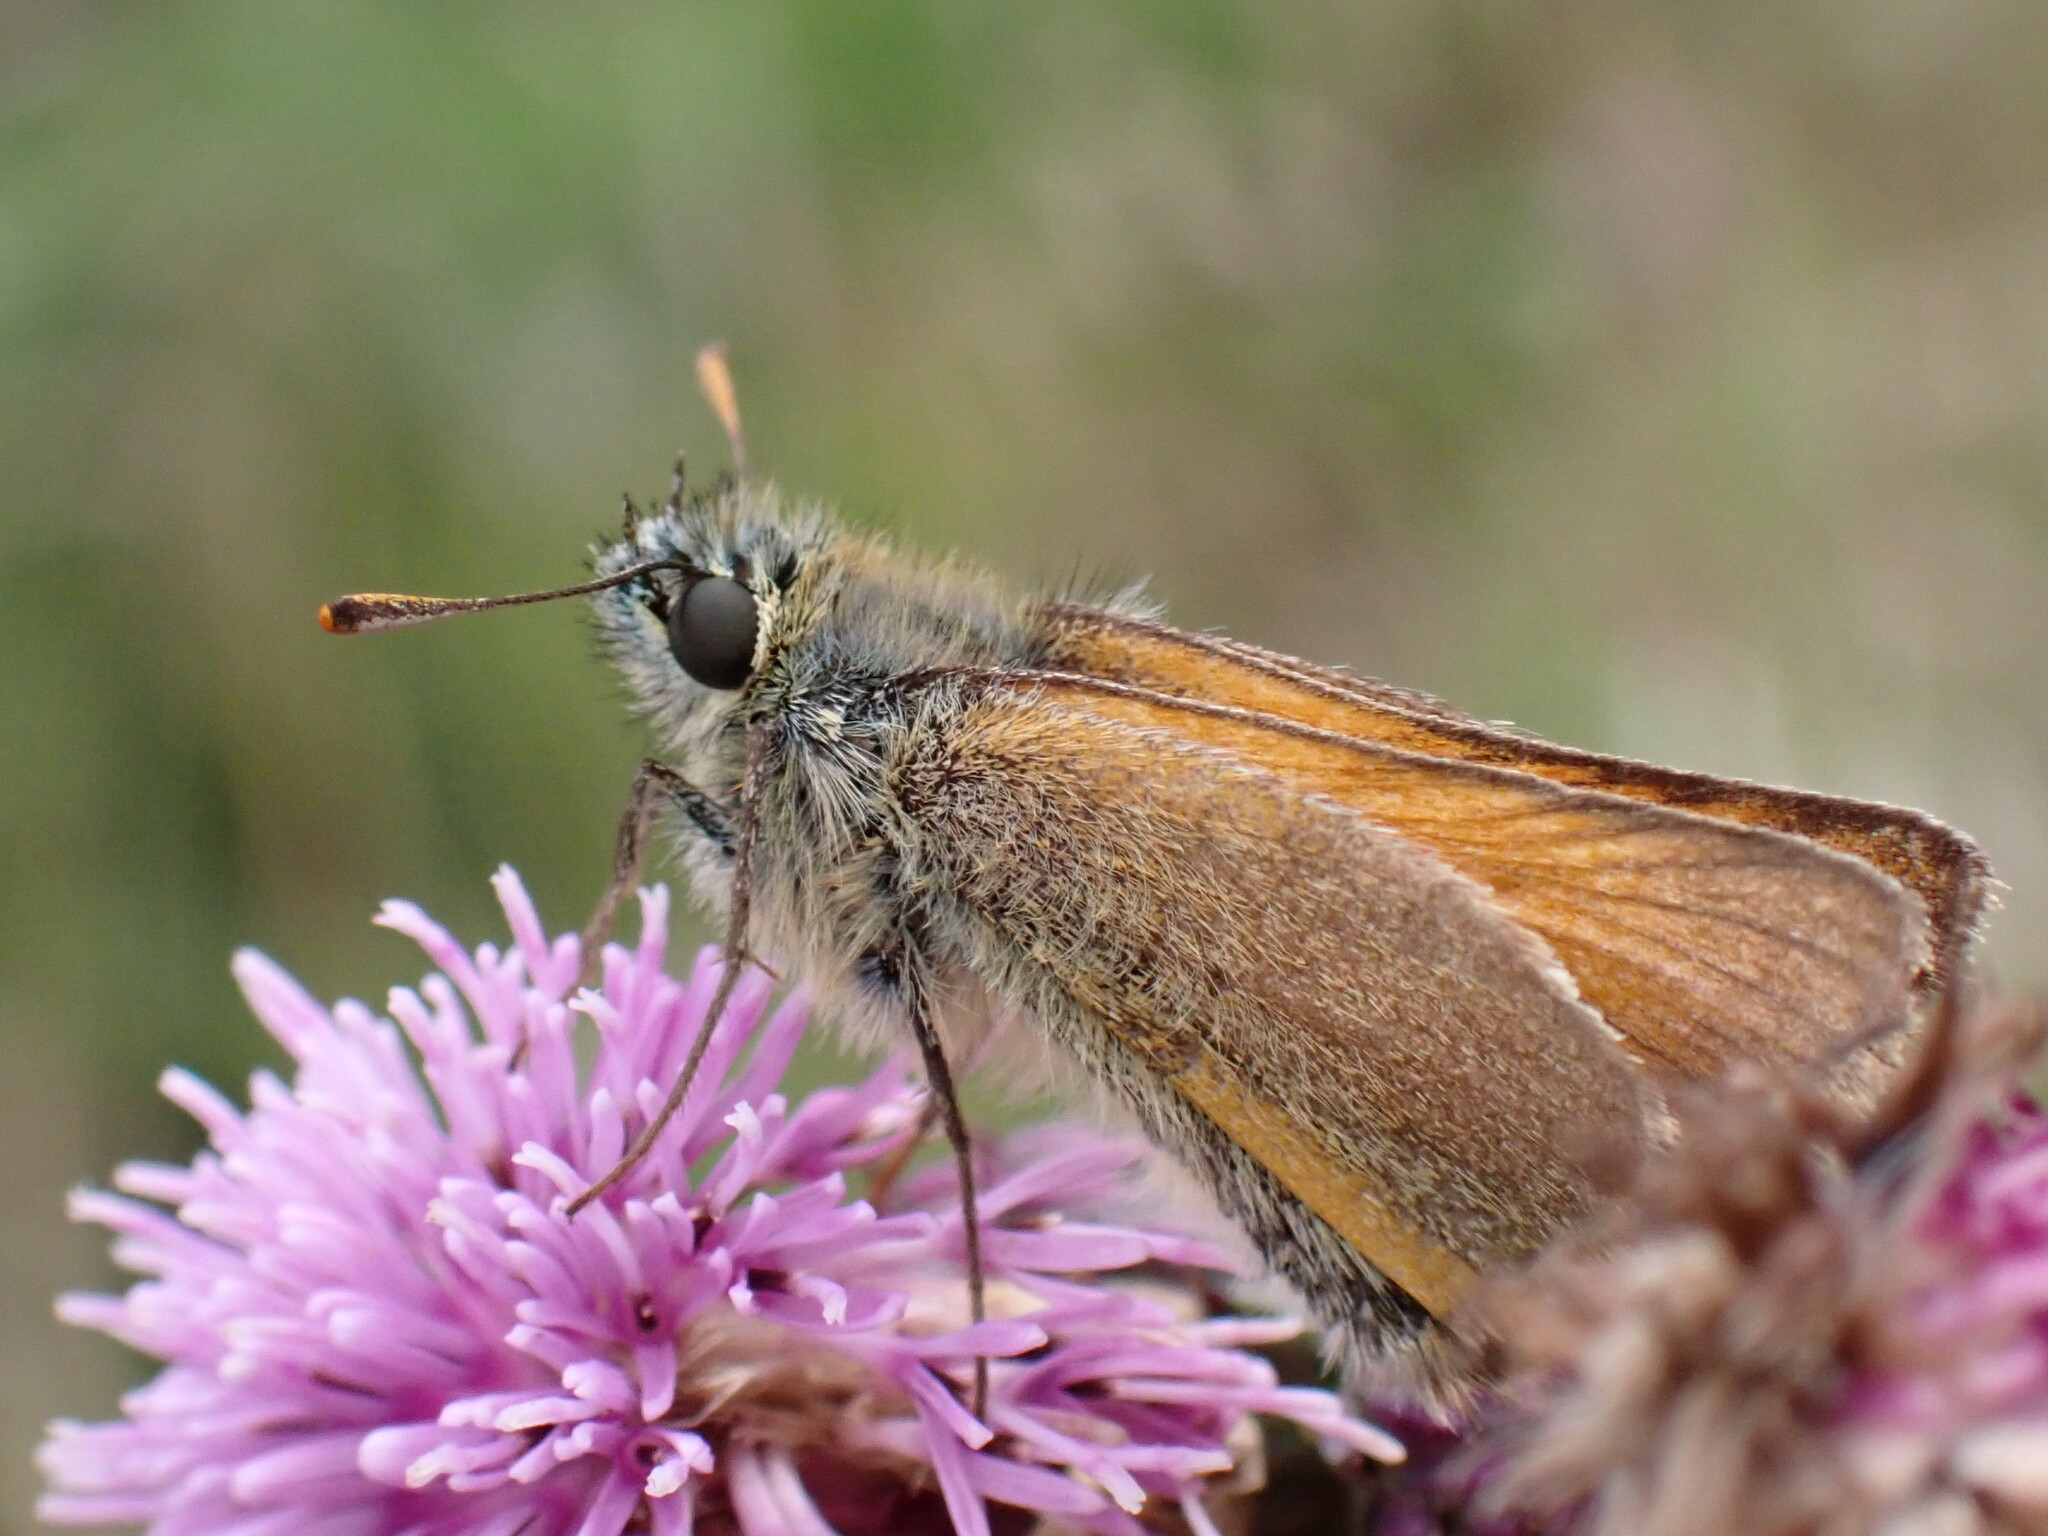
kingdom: Animalia
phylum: Arthropoda
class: Insecta
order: Lepidoptera
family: Hesperiidae
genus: Thymelicus
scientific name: Thymelicus sylvestris
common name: Small skipper
